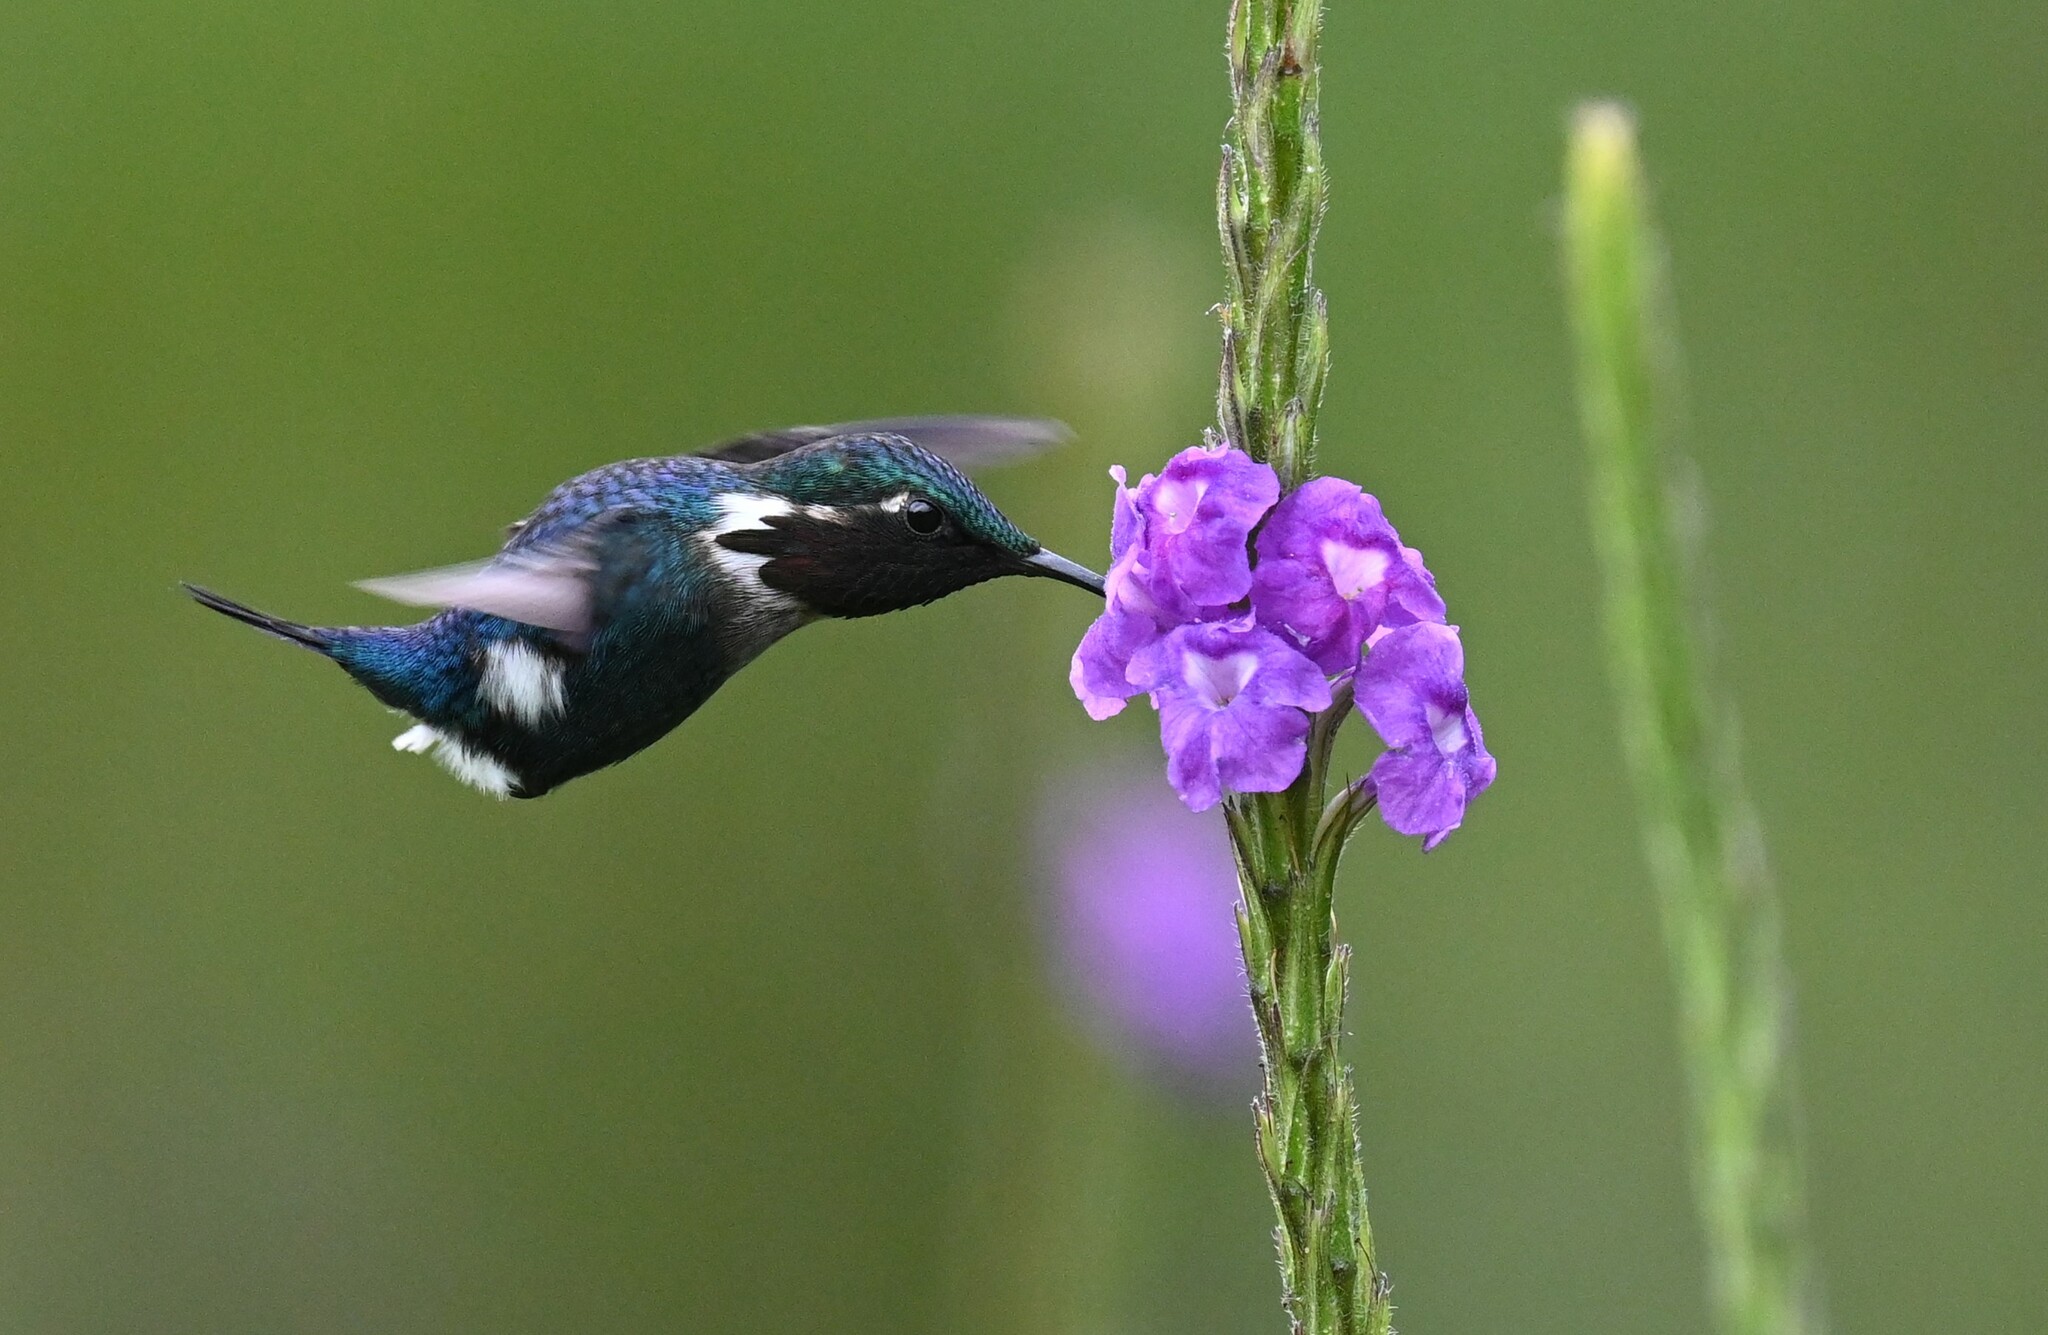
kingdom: Animalia
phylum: Chordata
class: Aves
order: Apodiformes
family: Trochilidae
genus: Chaetocercus
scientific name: Chaetocercus heliodor
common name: Gorgeted woodstar
